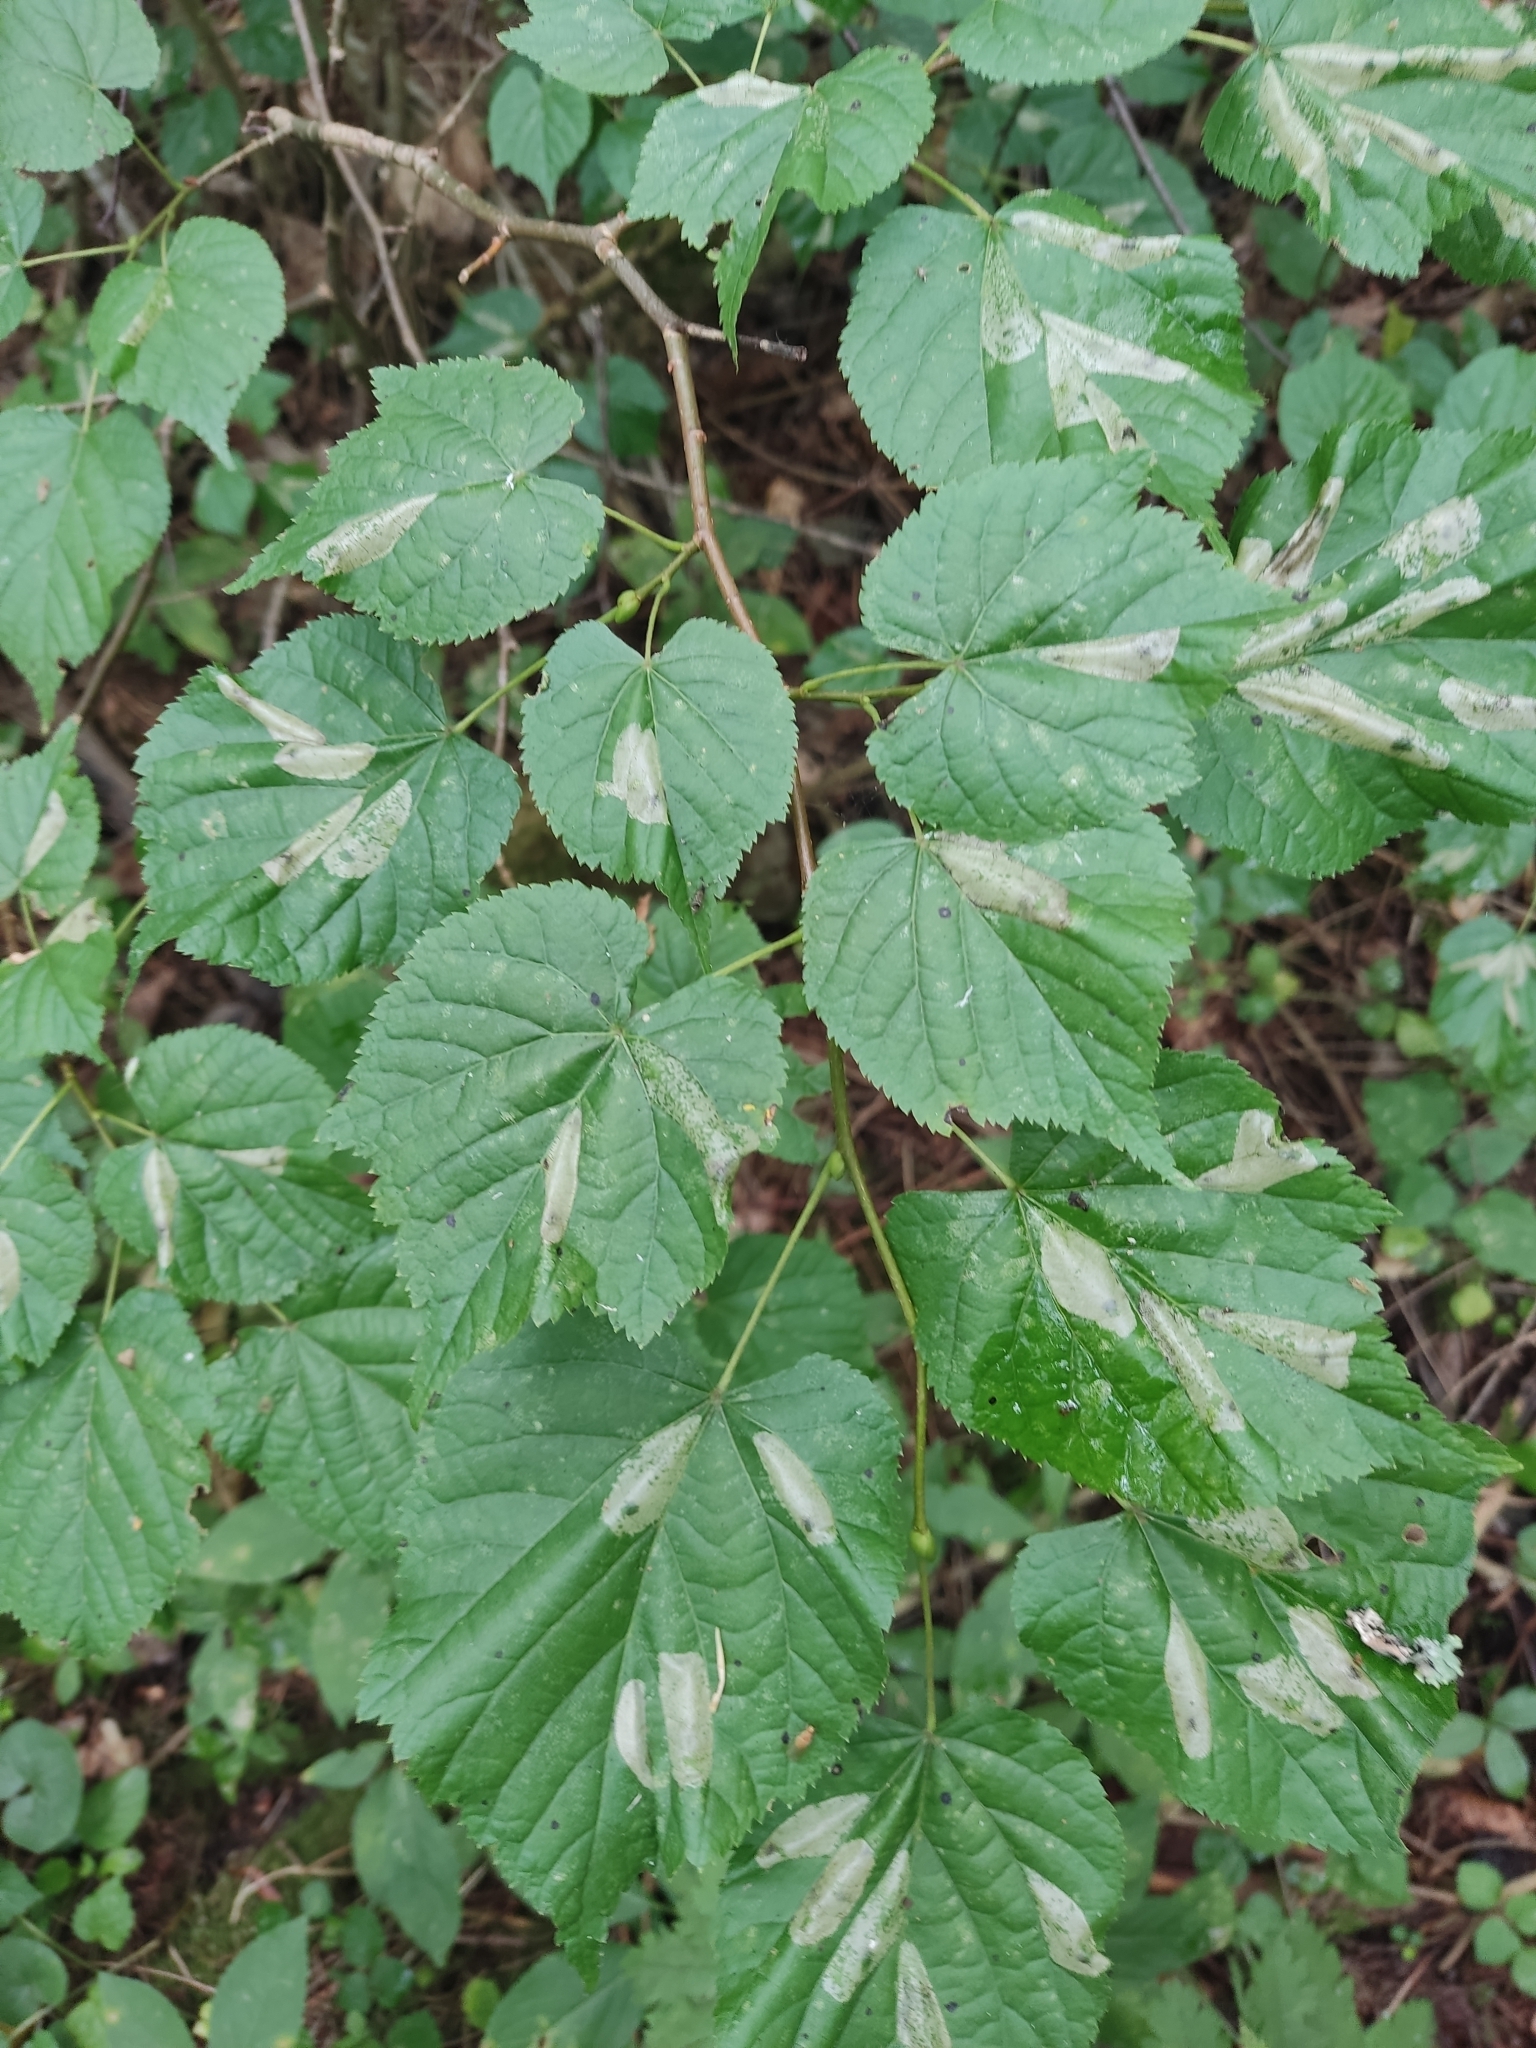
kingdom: Animalia
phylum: Arthropoda
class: Insecta
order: Lepidoptera
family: Gracillariidae
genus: Phyllonorycter
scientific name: Phyllonorycter issikii
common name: Linden midget
